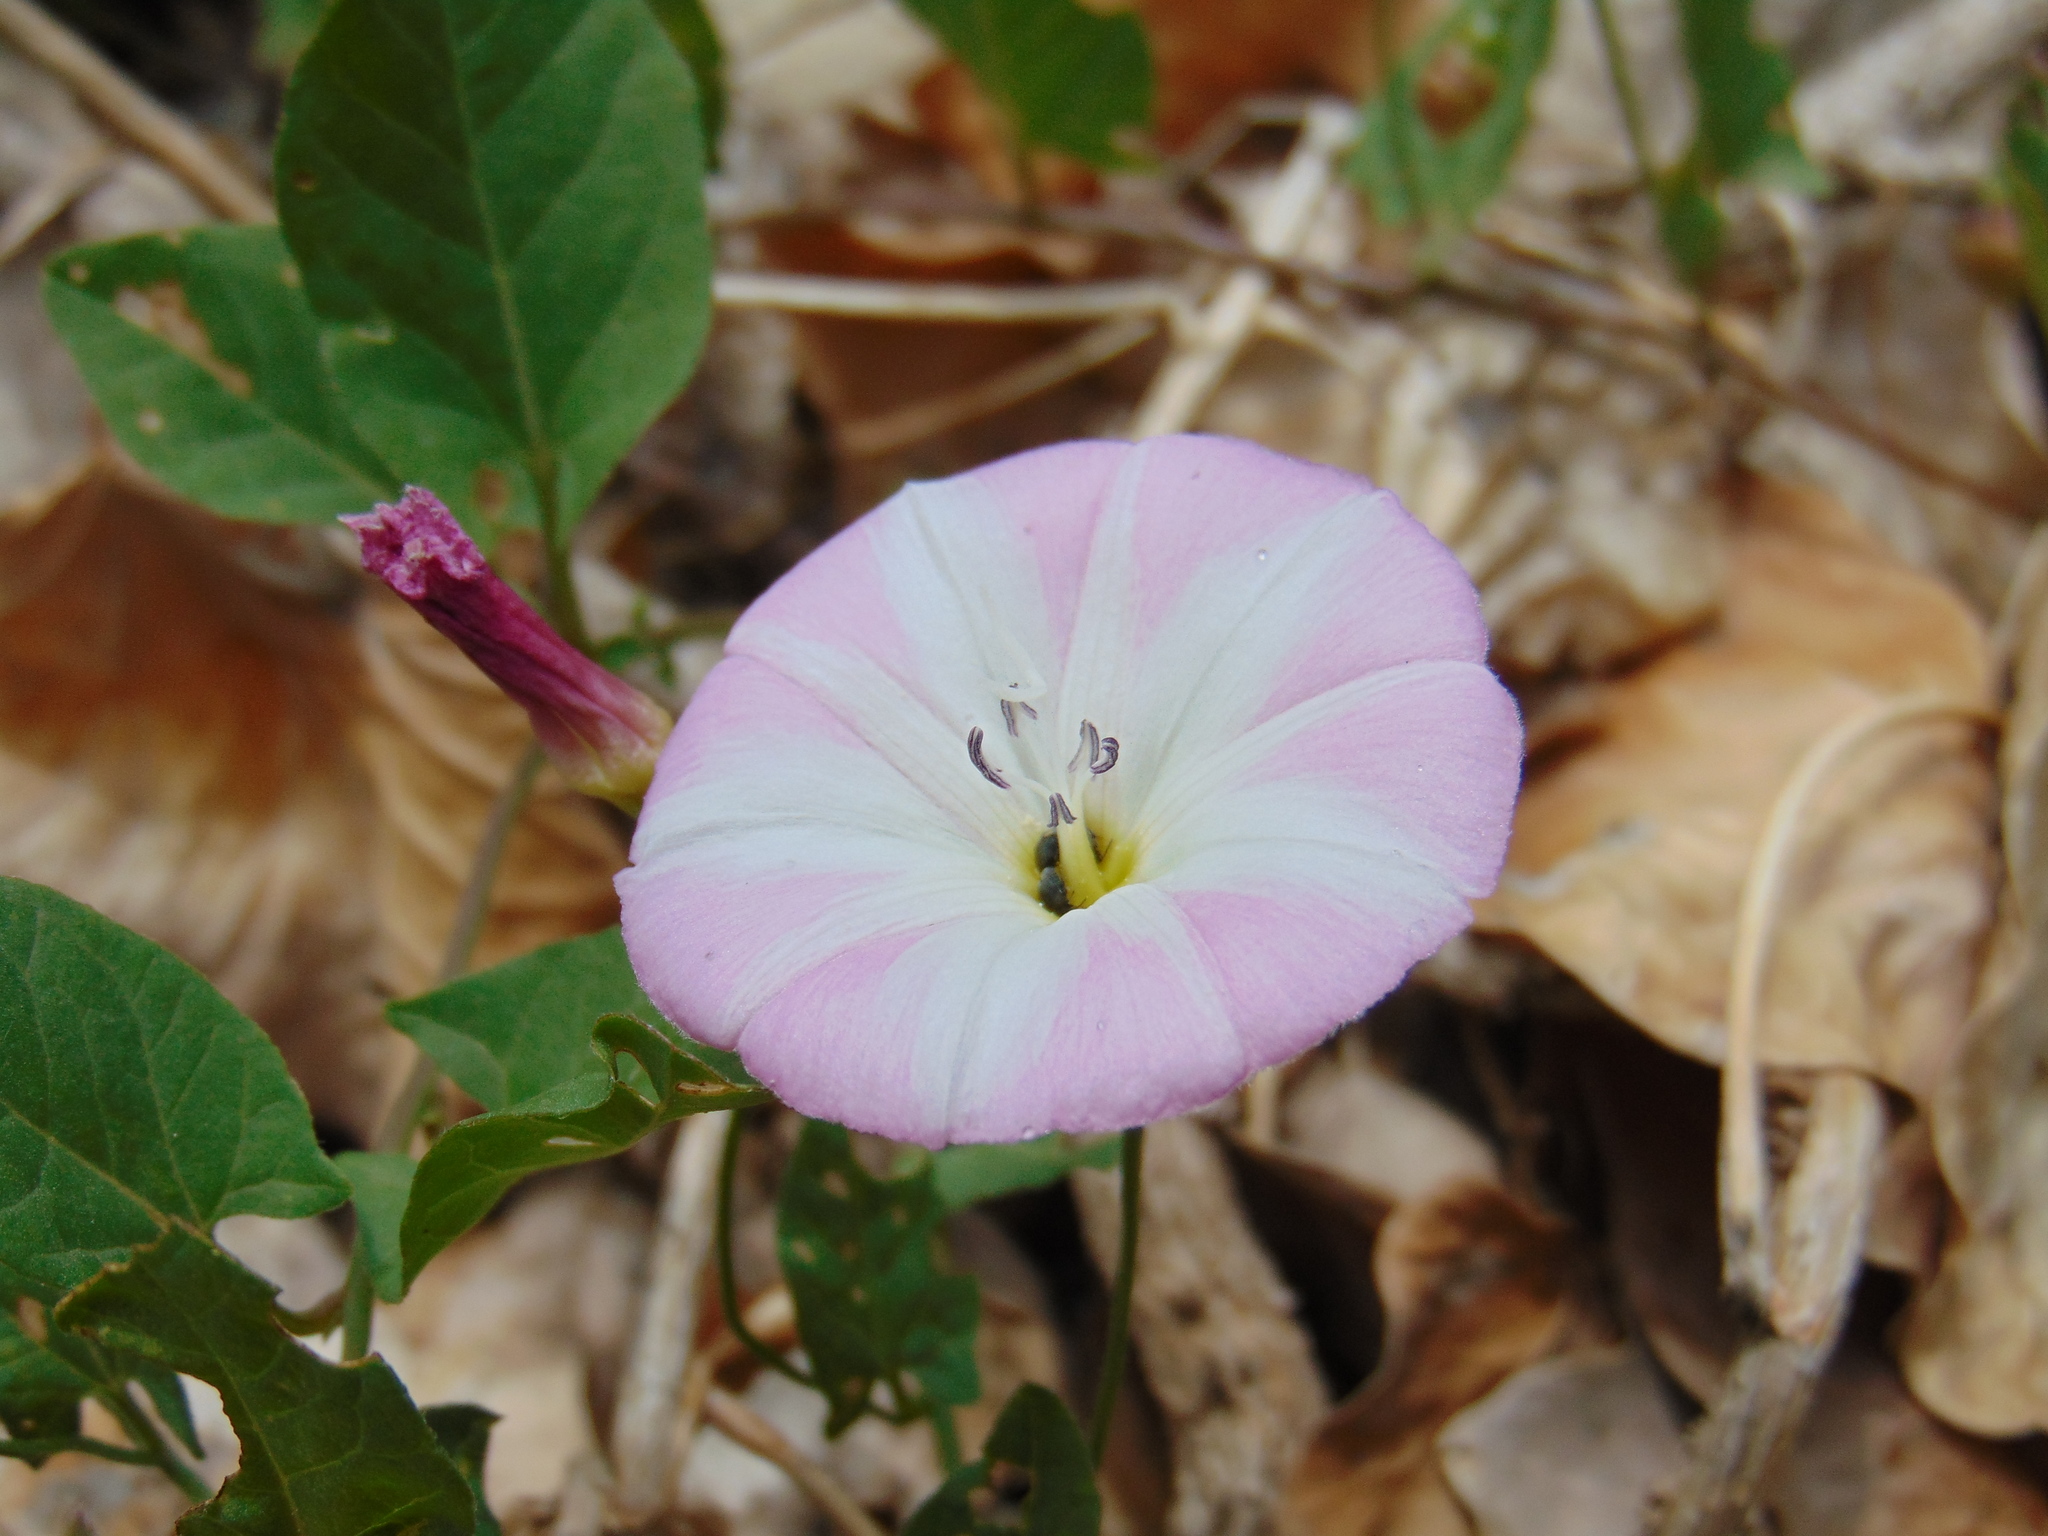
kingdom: Plantae
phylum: Tracheophyta
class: Magnoliopsida
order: Solanales
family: Convolvulaceae
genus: Convolvulus
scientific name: Convolvulus arvensis
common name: Field bindweed
